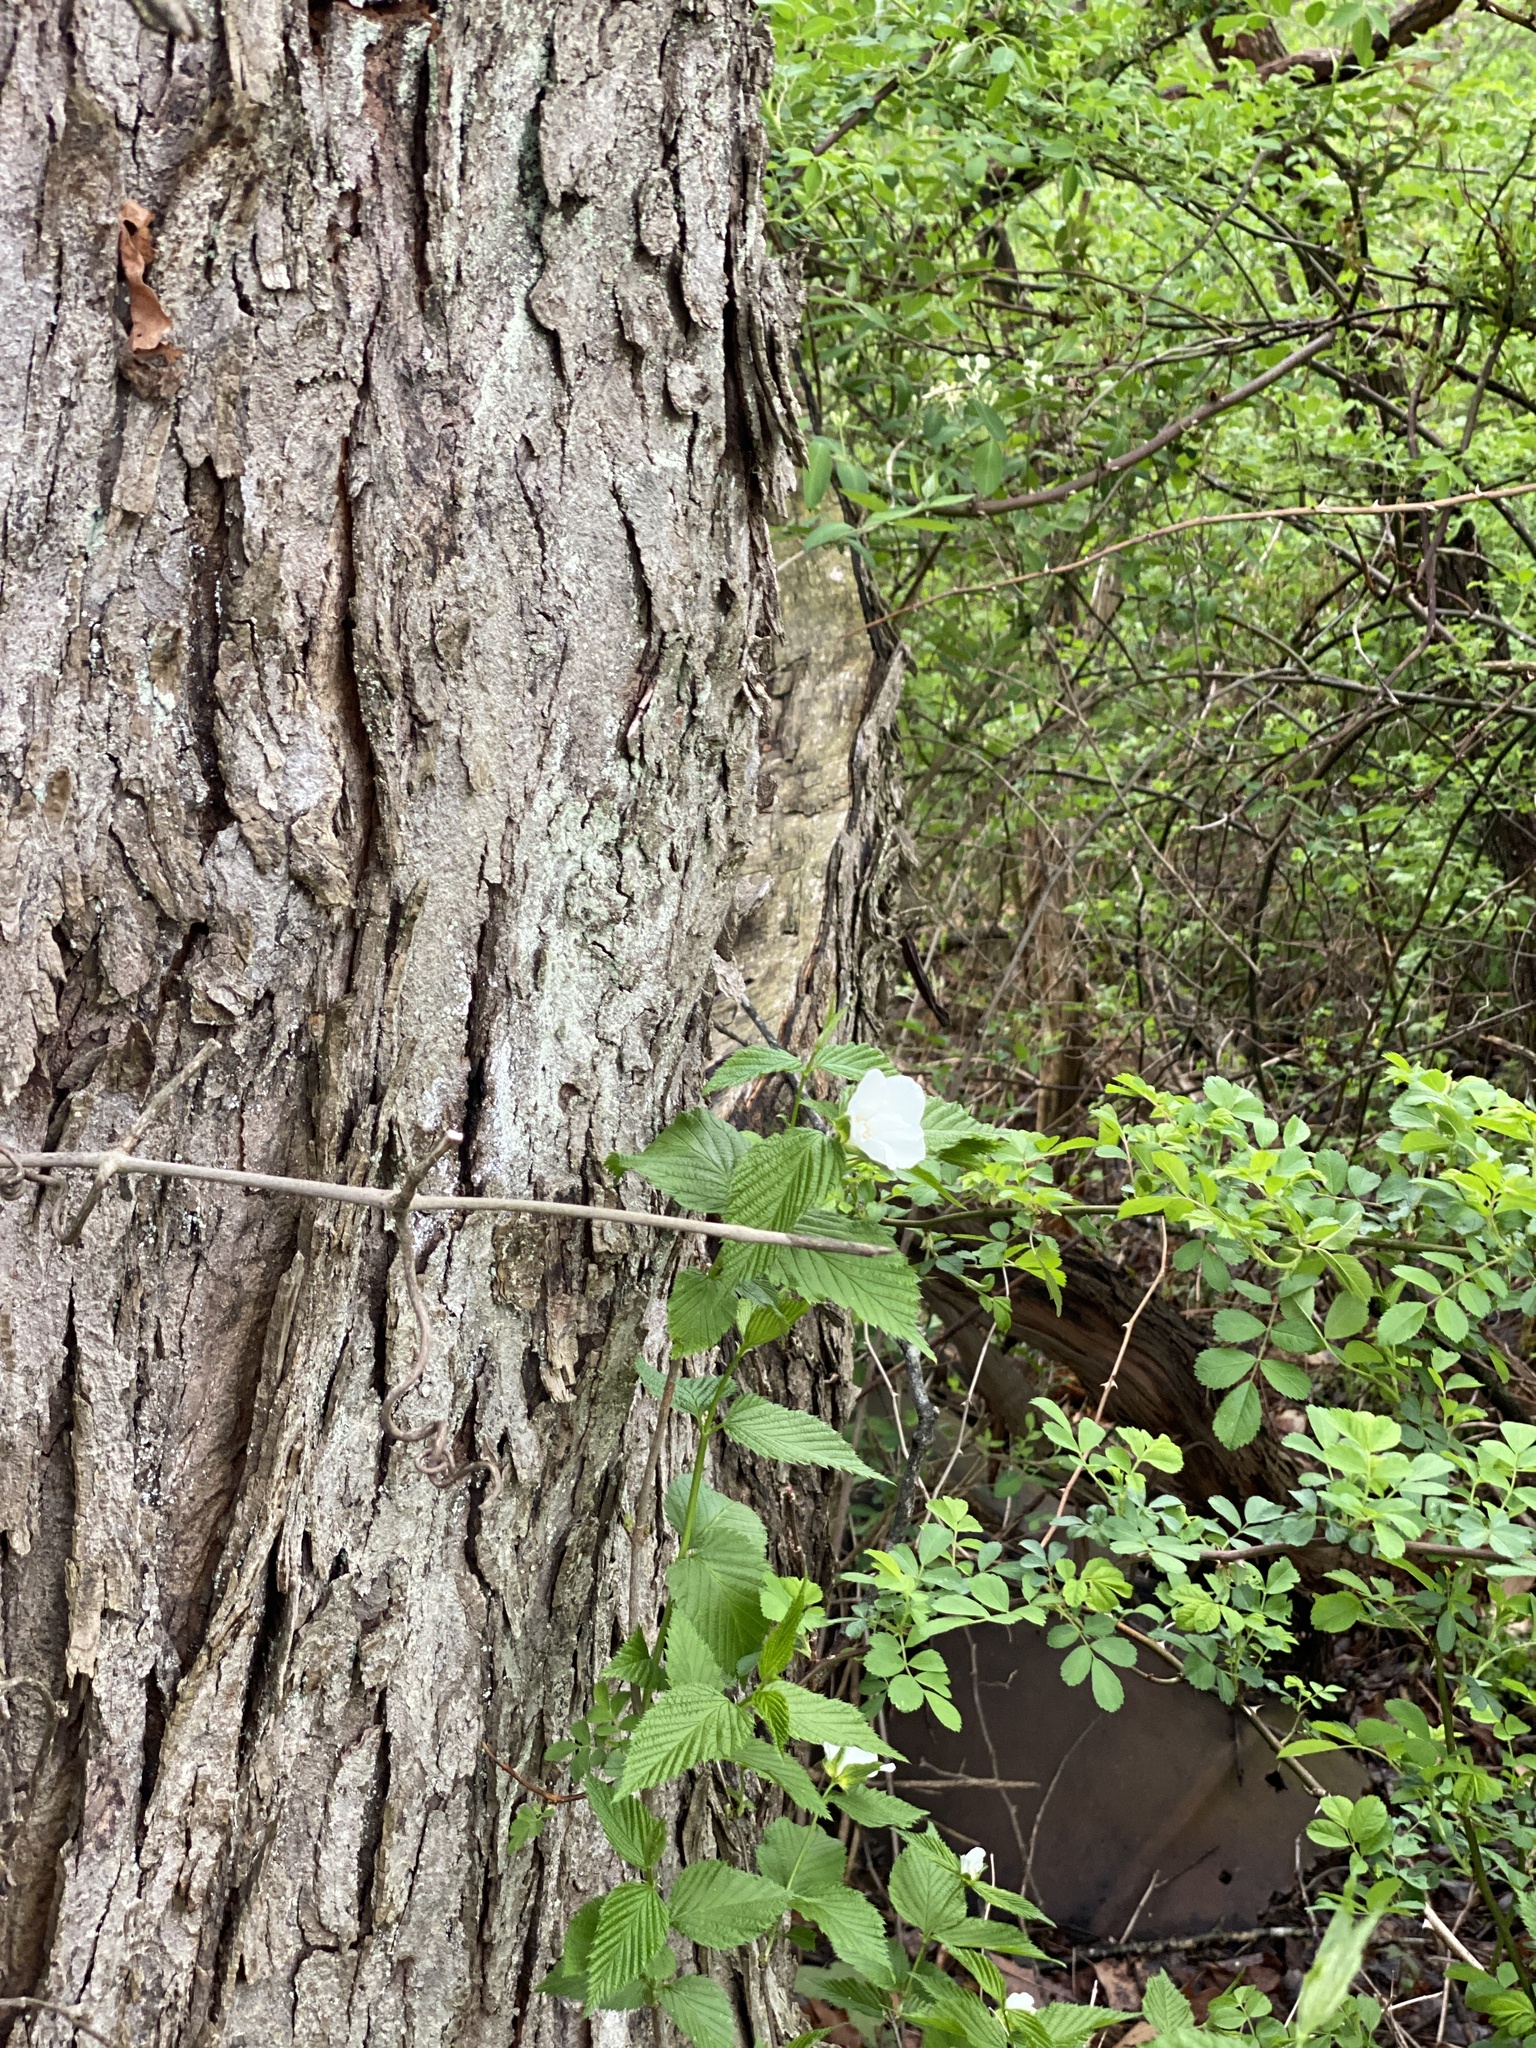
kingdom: Plantae
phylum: Tracheophyta
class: Magnoliopsida
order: Rosales
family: Rosaceae
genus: Rhodotypos
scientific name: Rhodotypos scandens
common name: Jetbead
